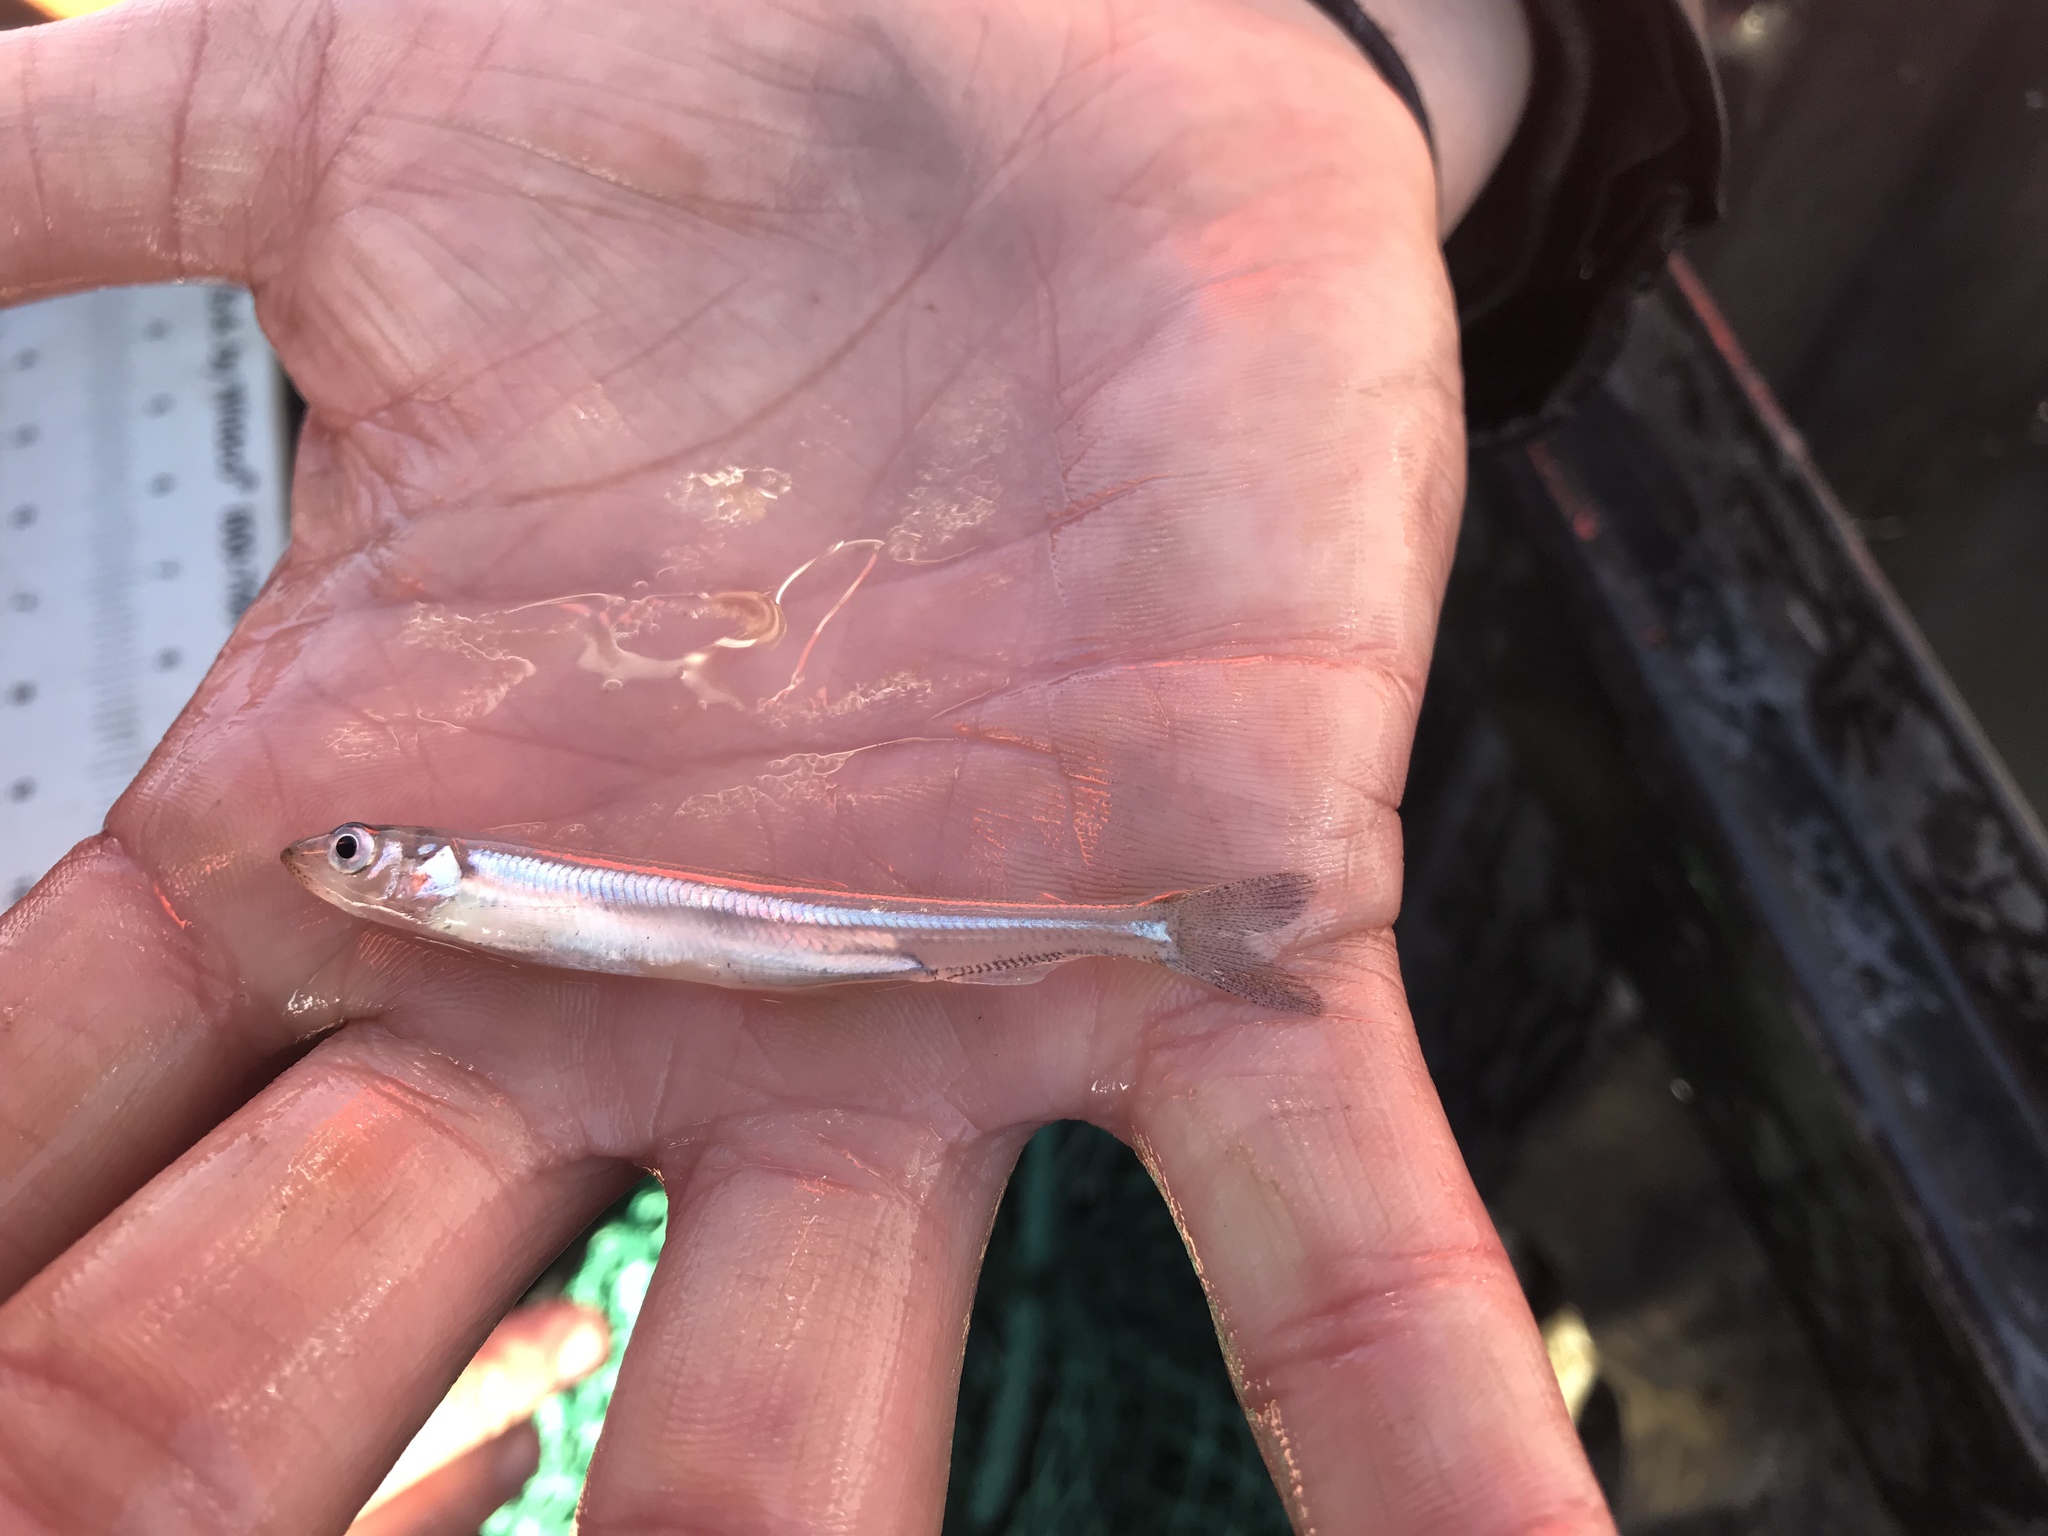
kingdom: Animalia
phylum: Chordata
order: Osmeriformes
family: Osmeridae
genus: Osmerus
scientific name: Osmerus mordax
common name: Rainbow smelt
